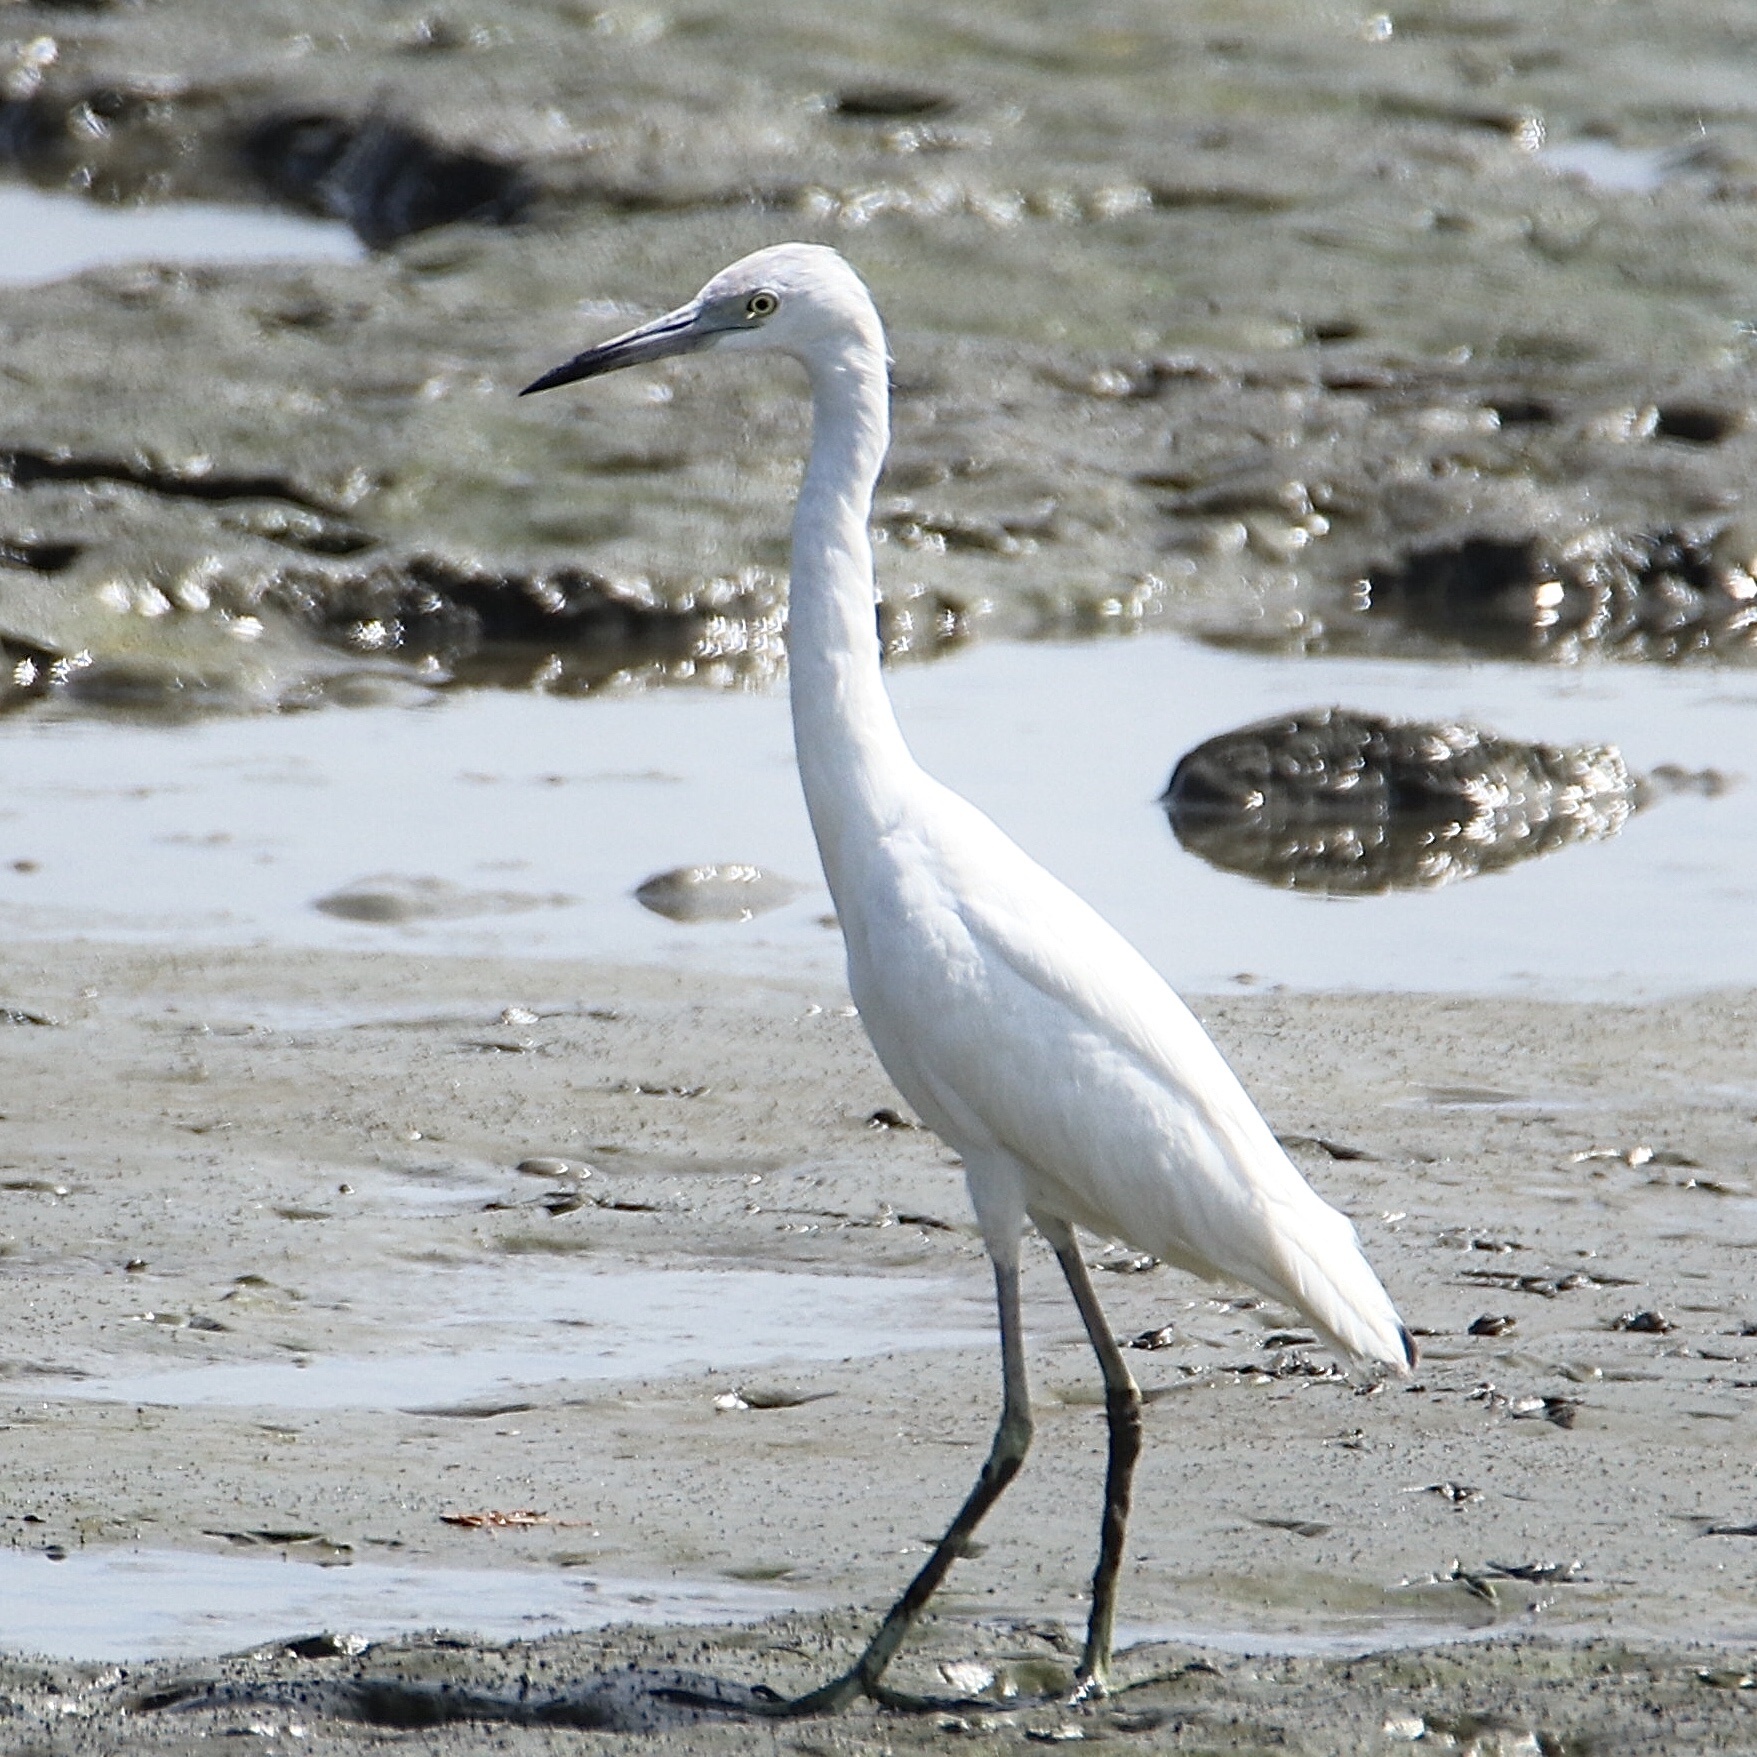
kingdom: Animalia
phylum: Chordata
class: Aves
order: Pelecaniformes
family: Ardeidae
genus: Egretta
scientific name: Egretta caerulea
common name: Little blue heron
